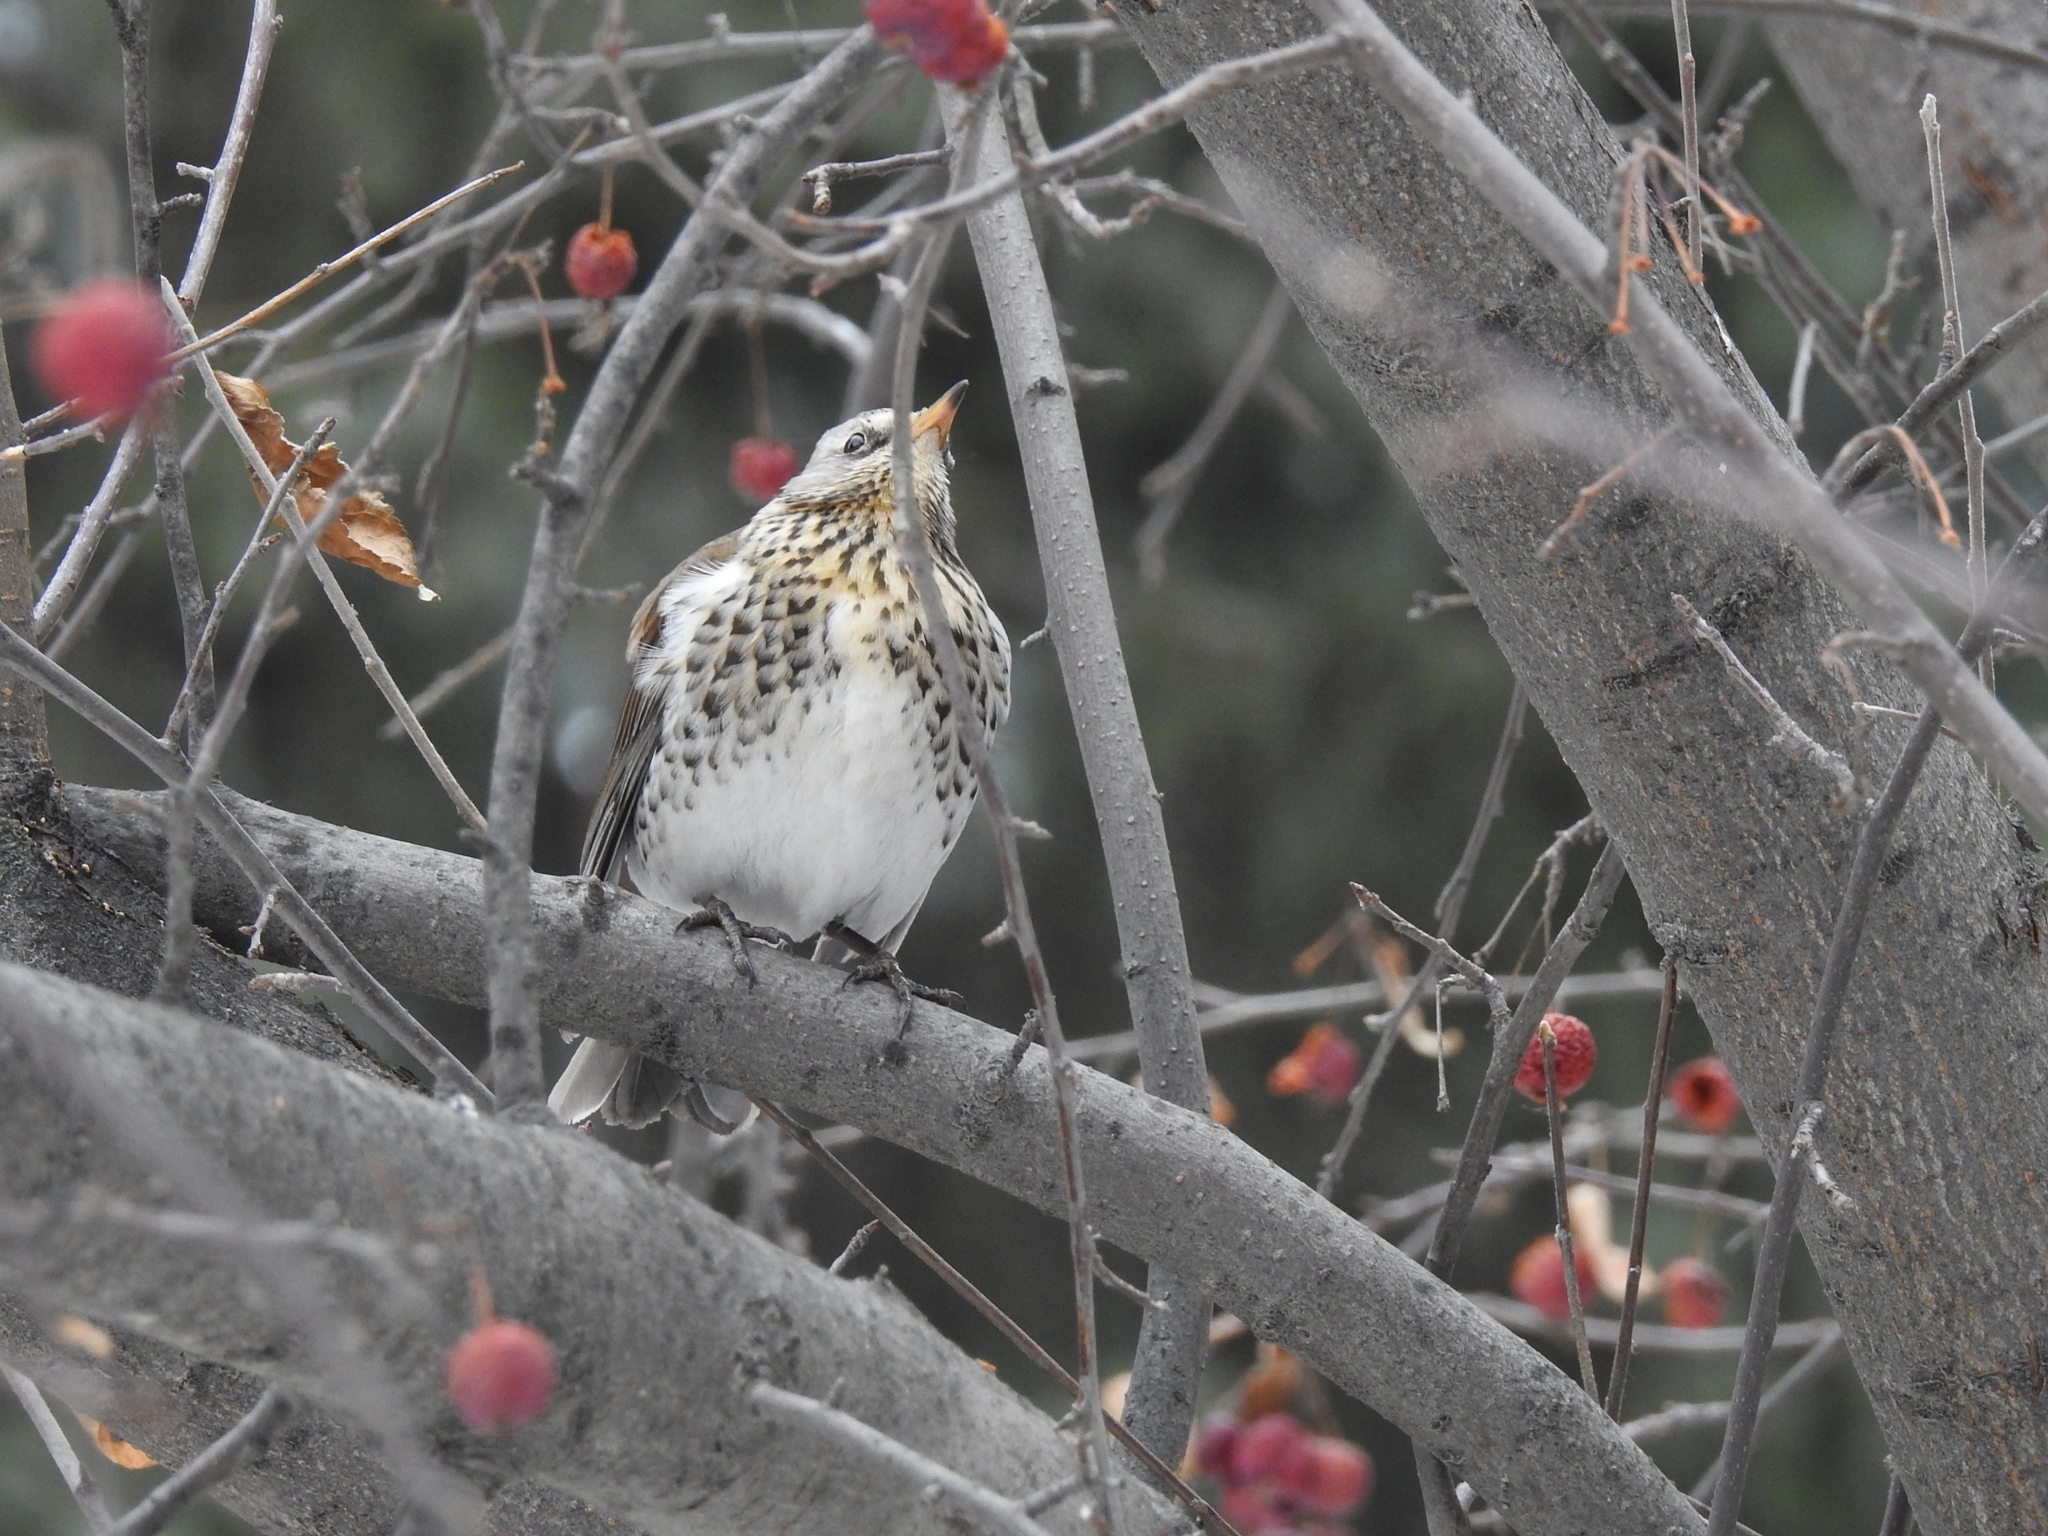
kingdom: Animalia
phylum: Chordata
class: Aves
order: Passeriformes
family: Turdidae
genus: Turdus
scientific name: Turdus pilaris
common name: Fieldfare
